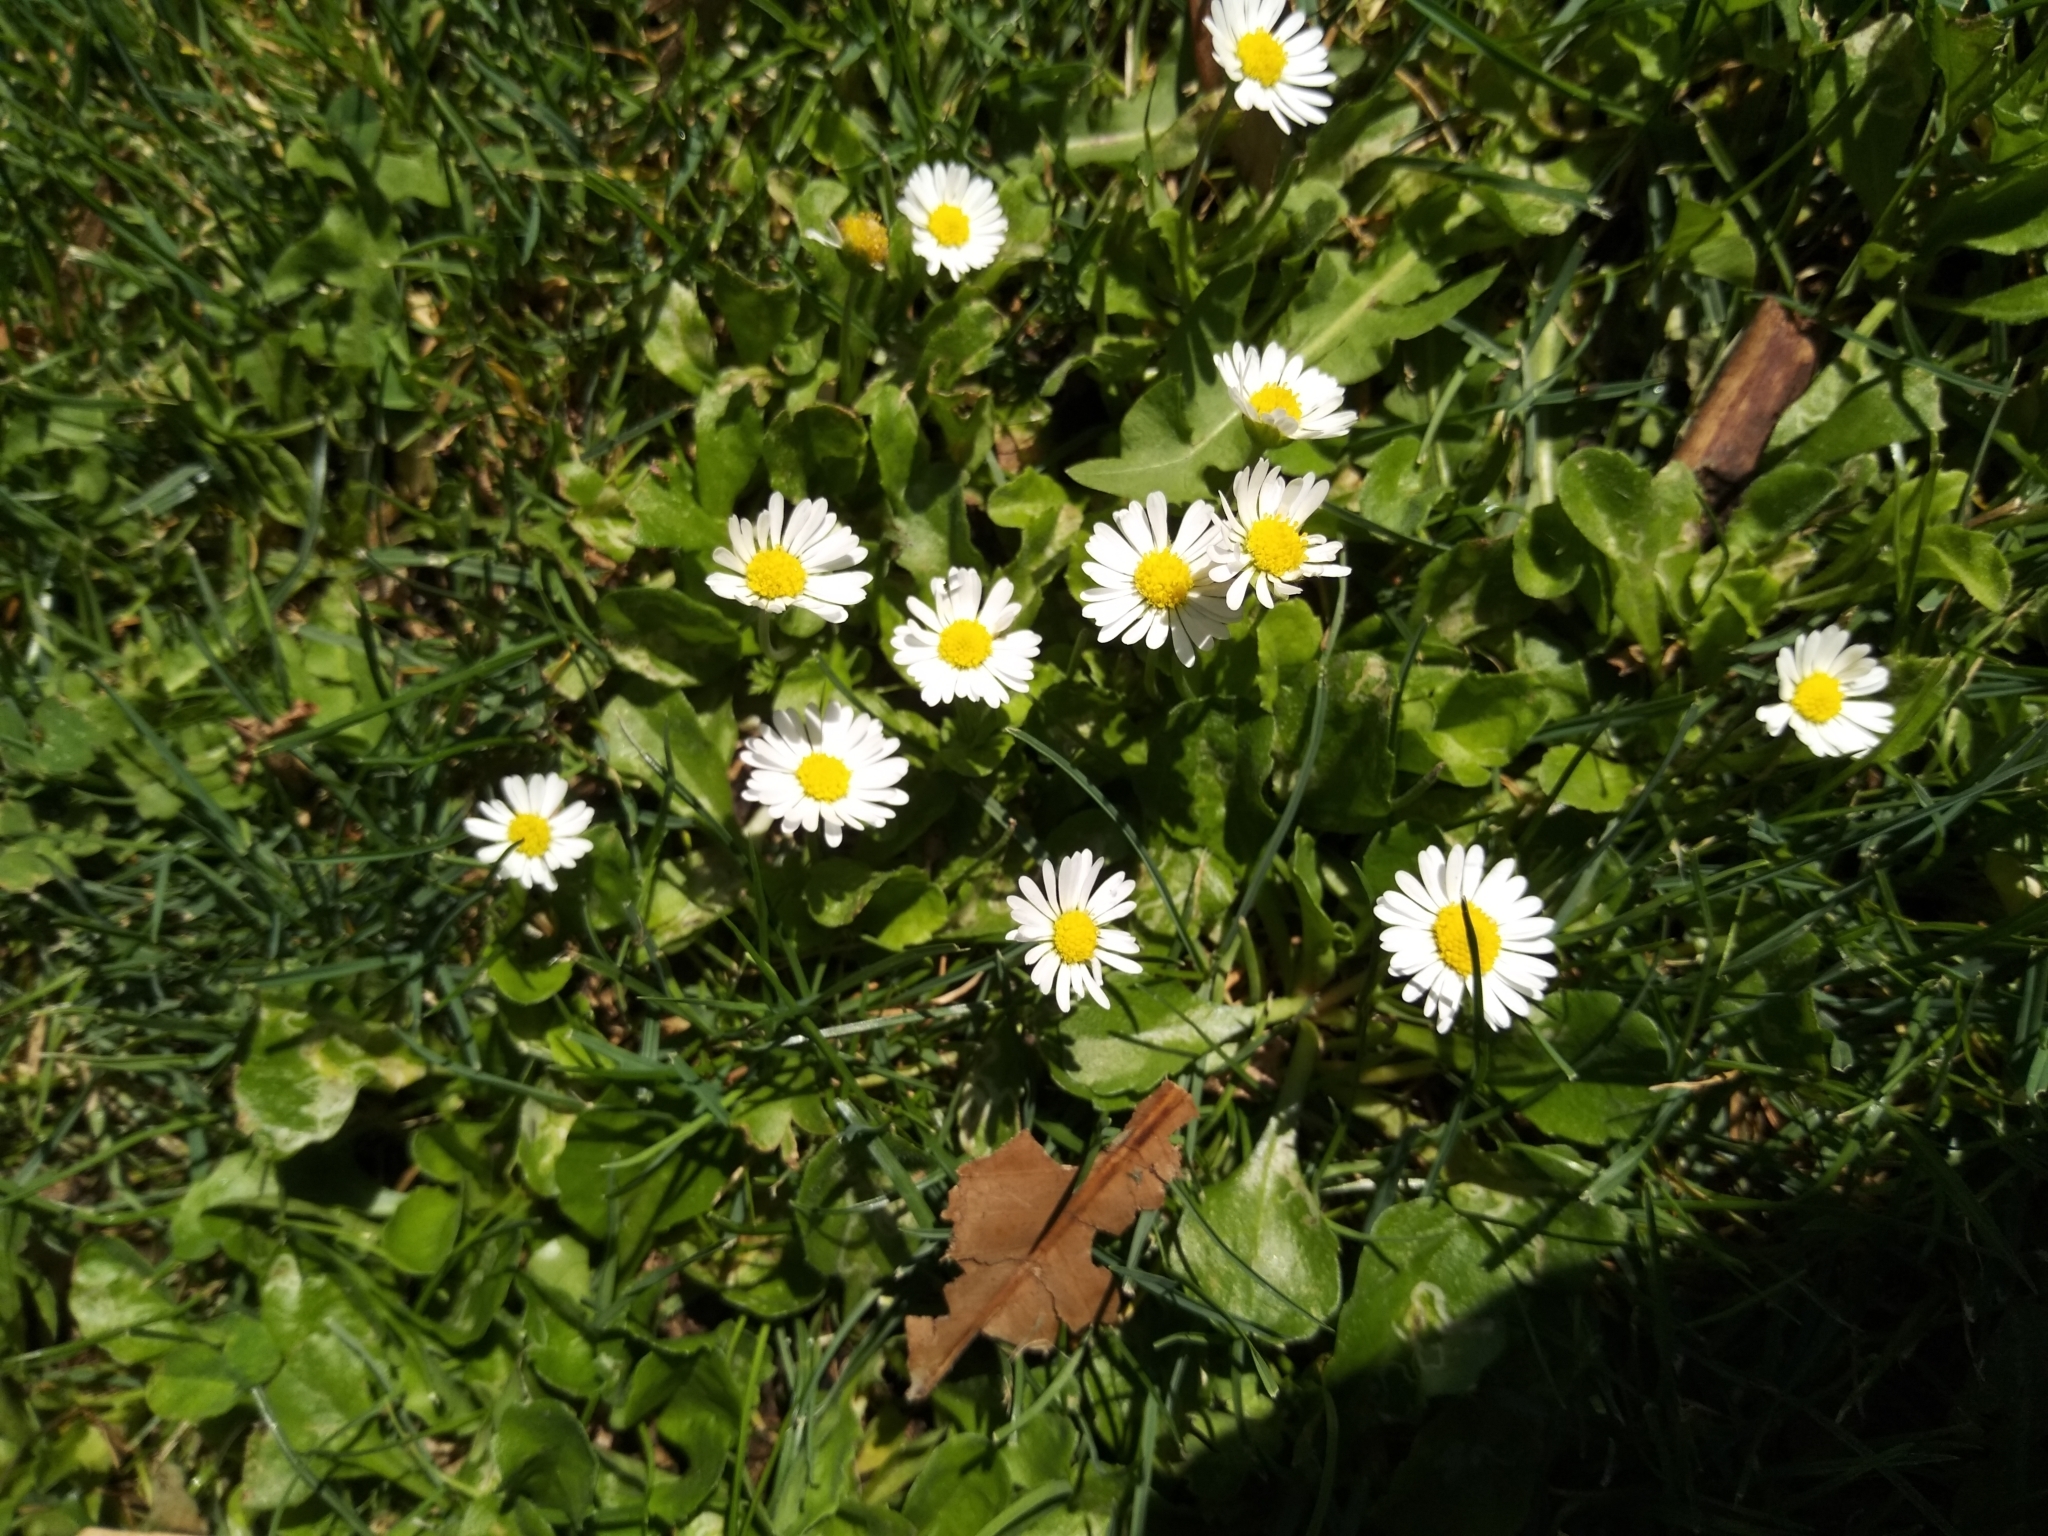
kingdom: Plantae
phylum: Tracheophyta
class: Magnoliopsida
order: Asterales
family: Asteraceae
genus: Bellis
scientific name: Bellis perennis
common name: Lawndaisy
